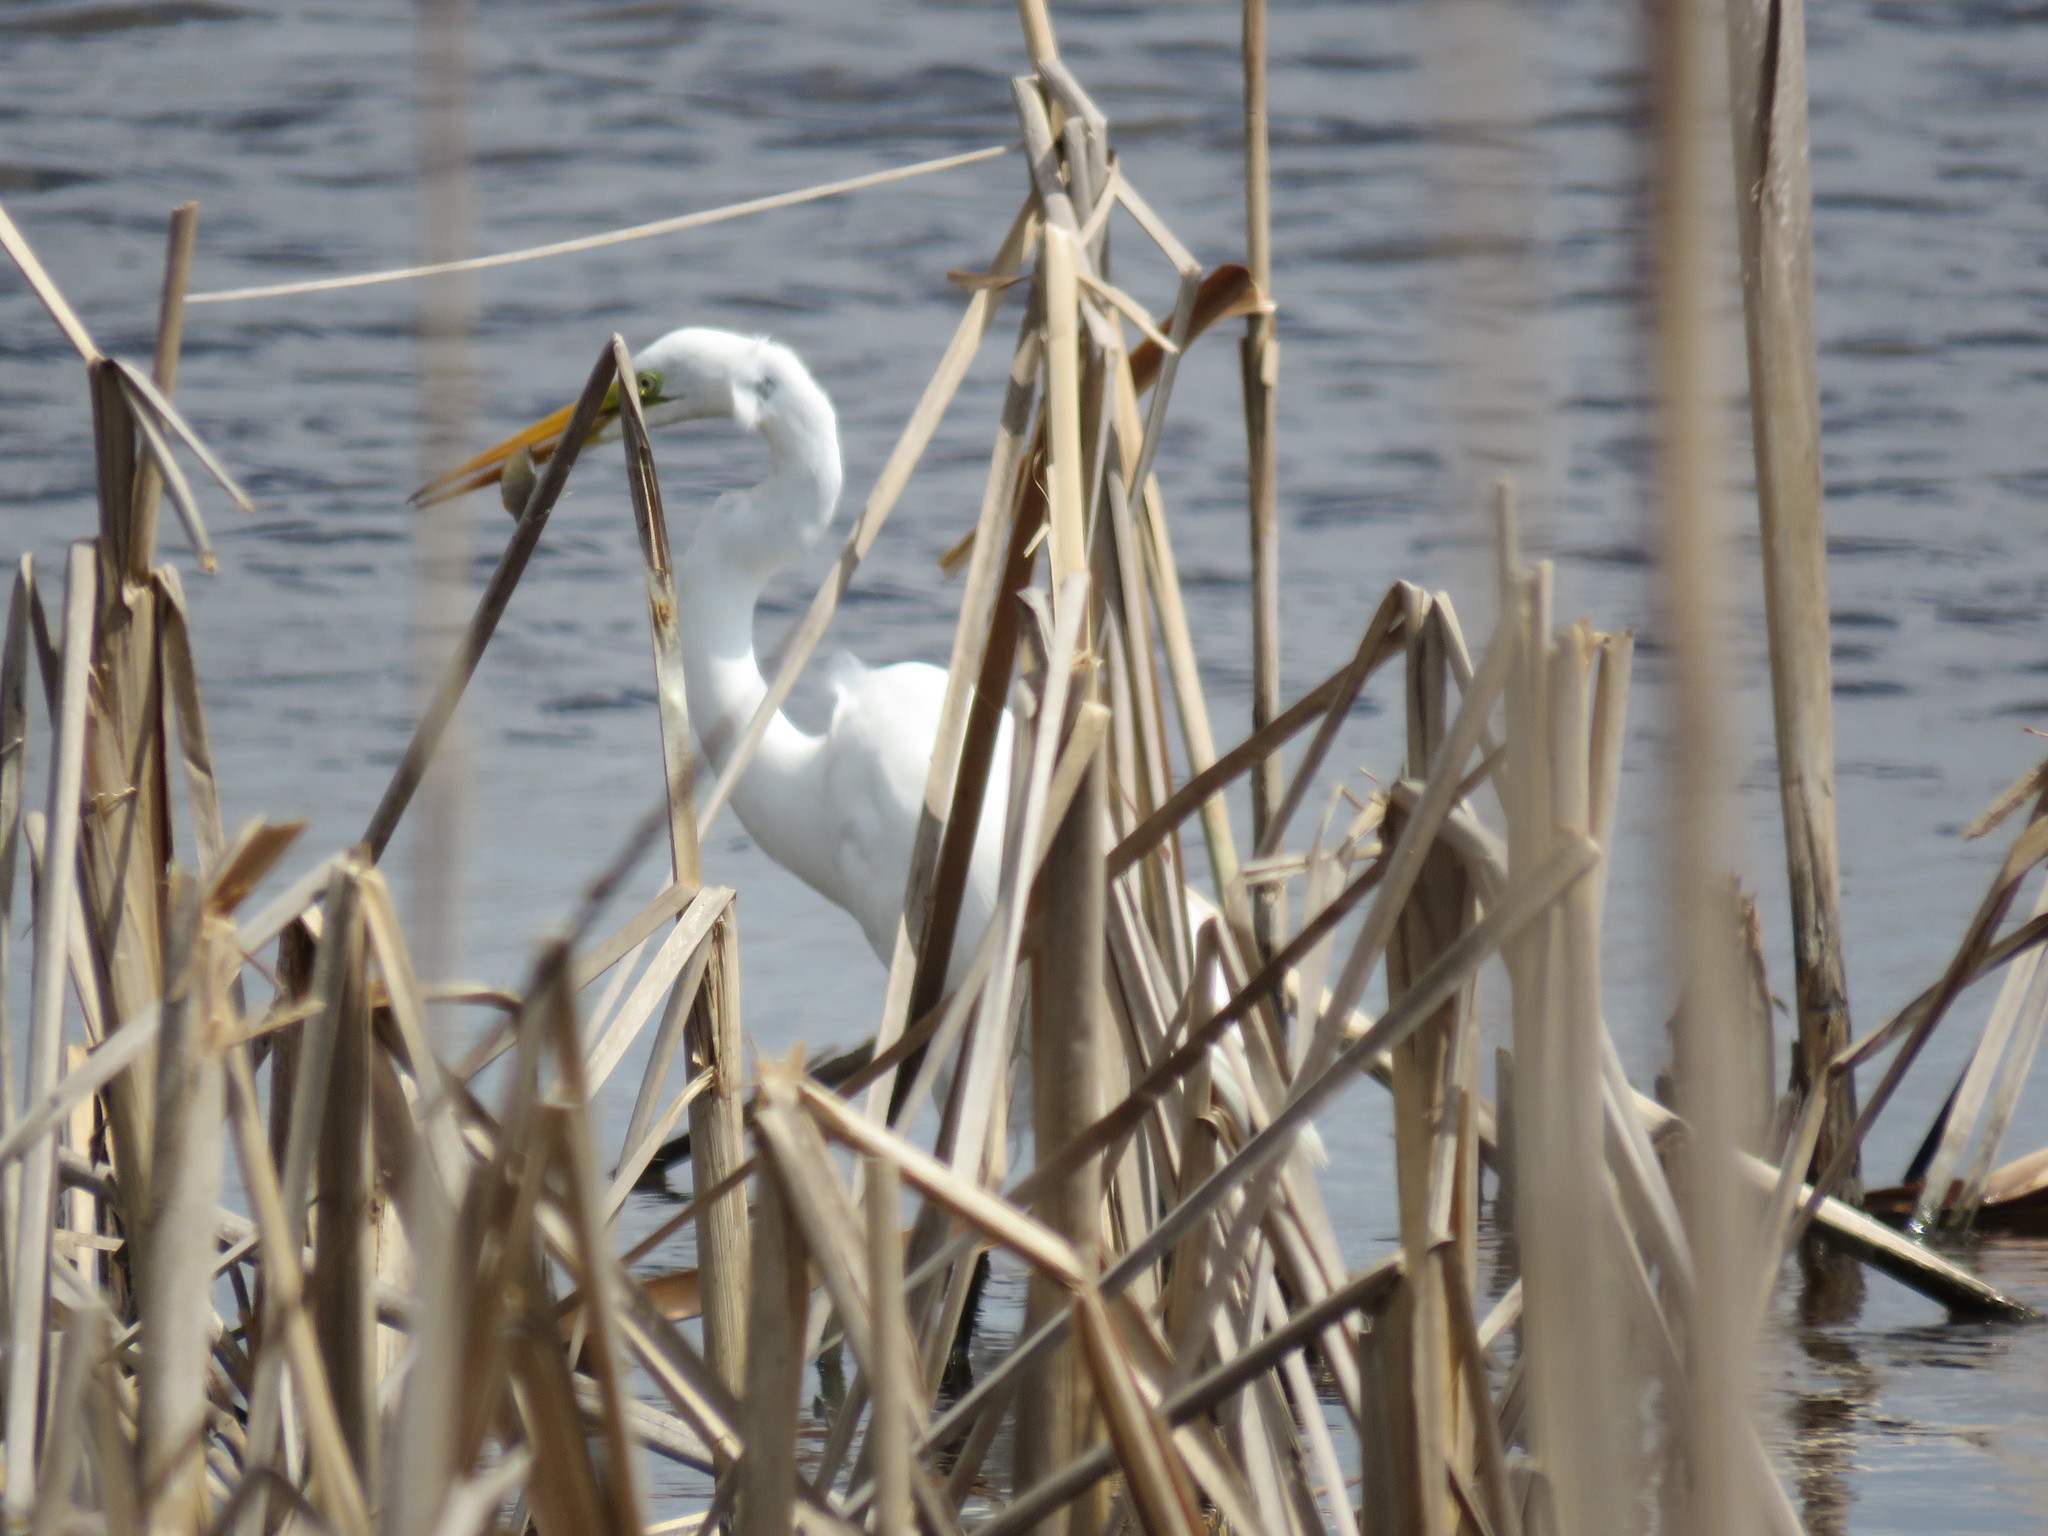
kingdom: Animalia
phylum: Chordata
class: Aves
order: Pelecaniformes
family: Ardeidae
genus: Ardea
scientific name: Ardea alba
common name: Great egret
